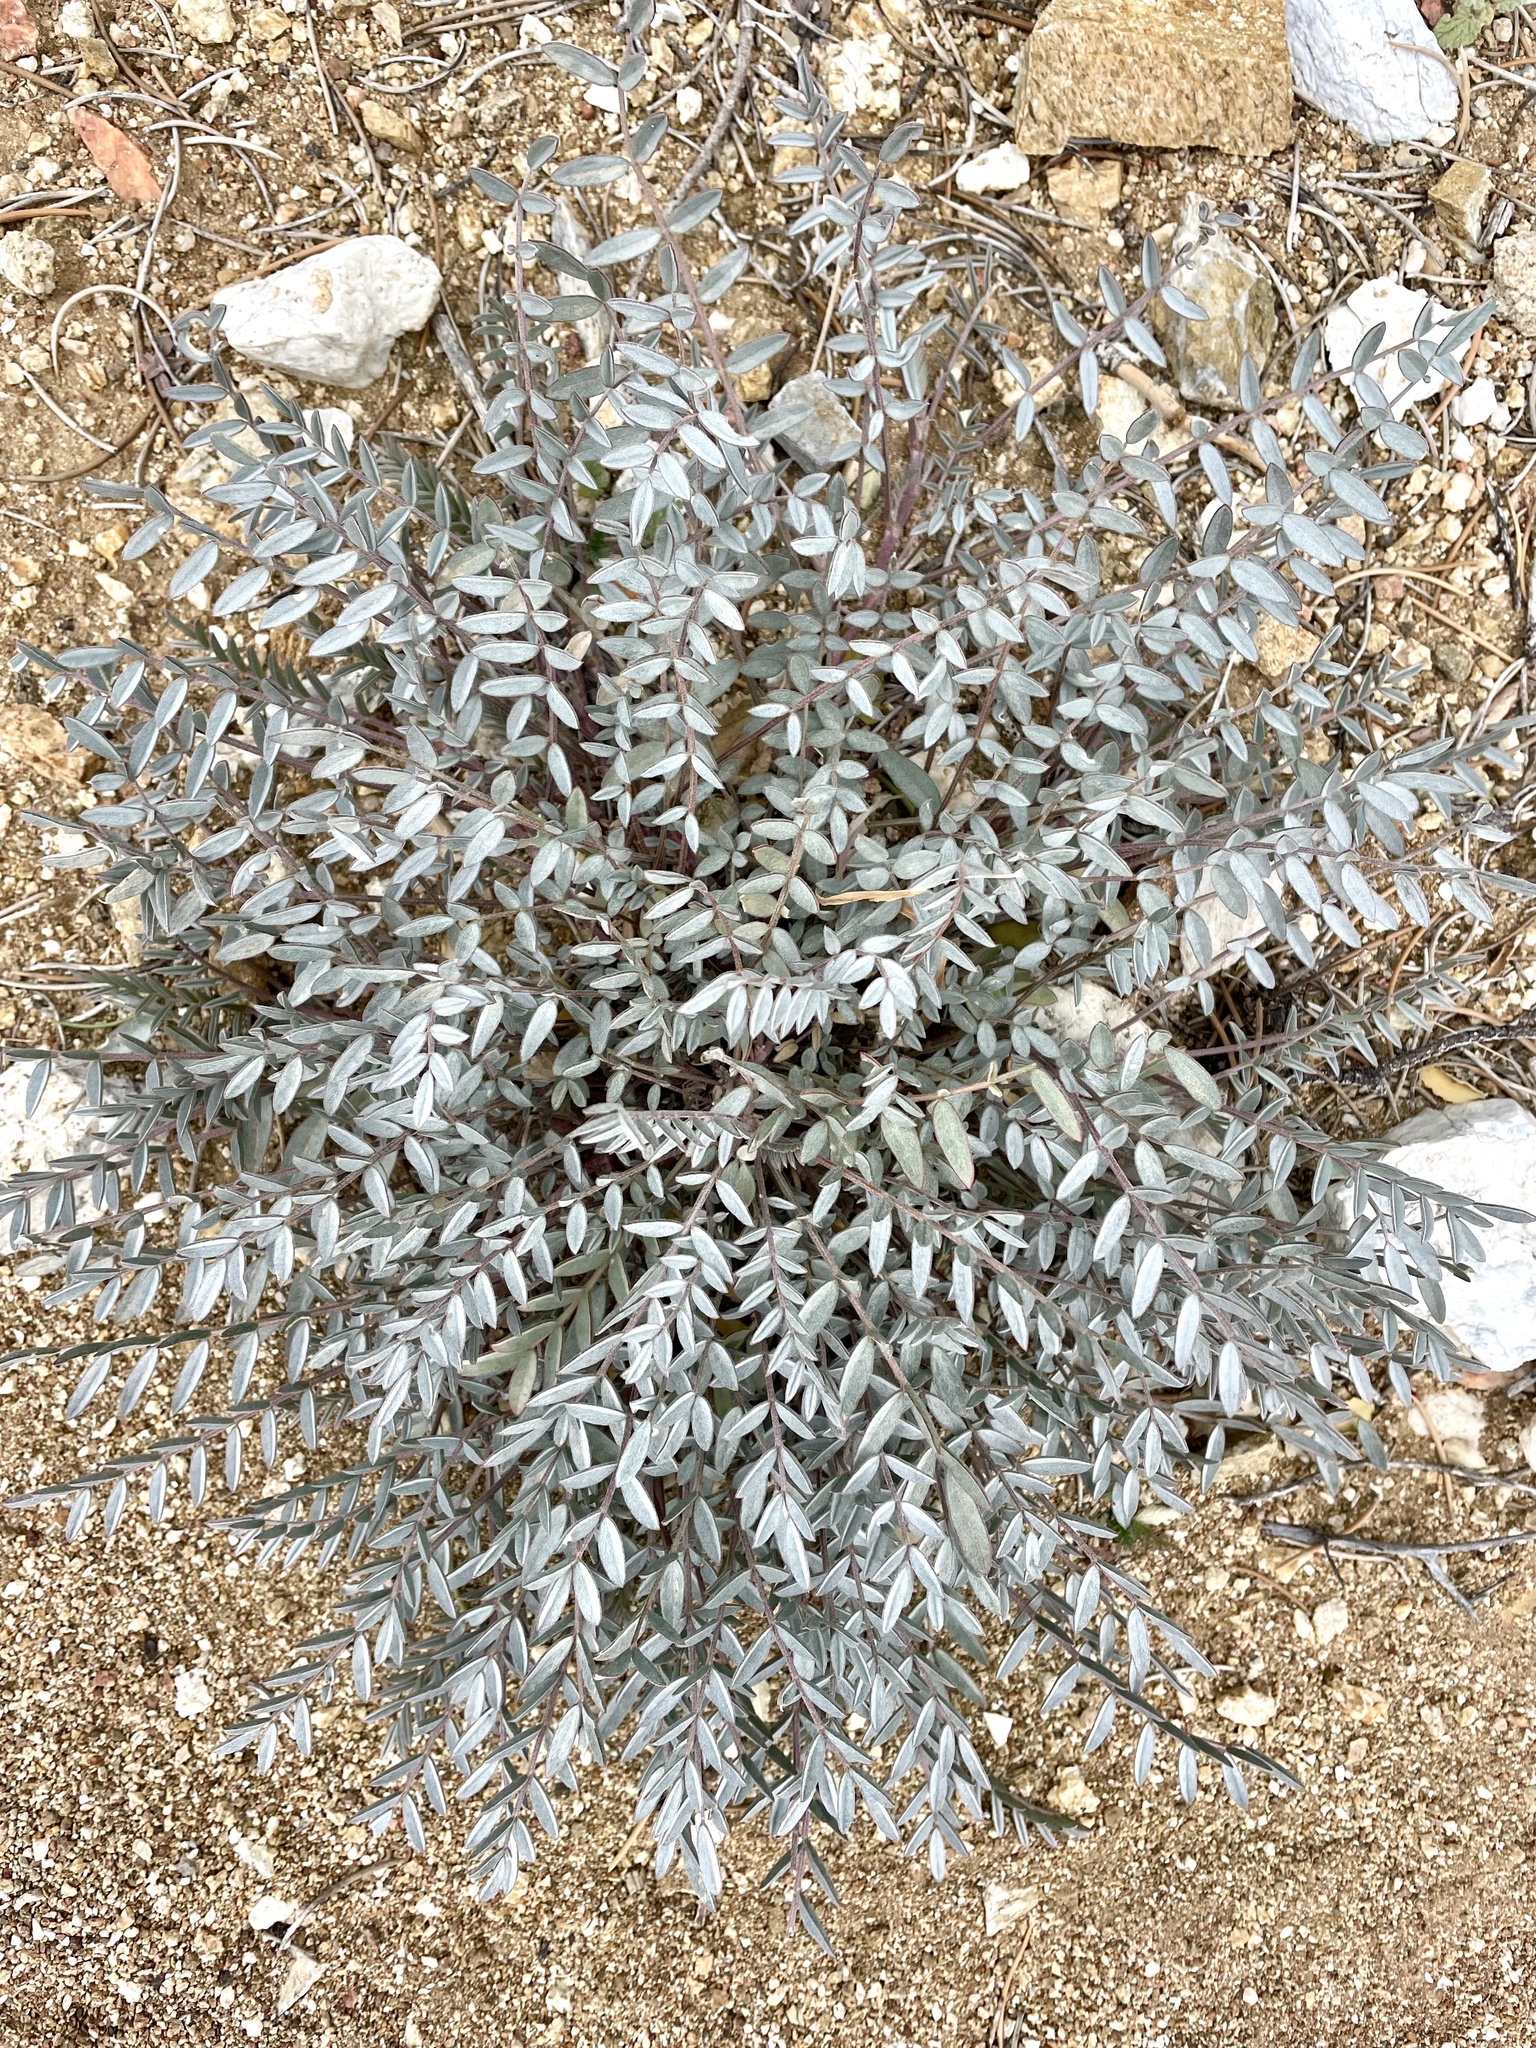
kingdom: Plantae
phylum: Tracheophyta
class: Magnoliopsida
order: Fabales
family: Fabaceae
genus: Astragalus
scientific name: Astragalus palmeri
